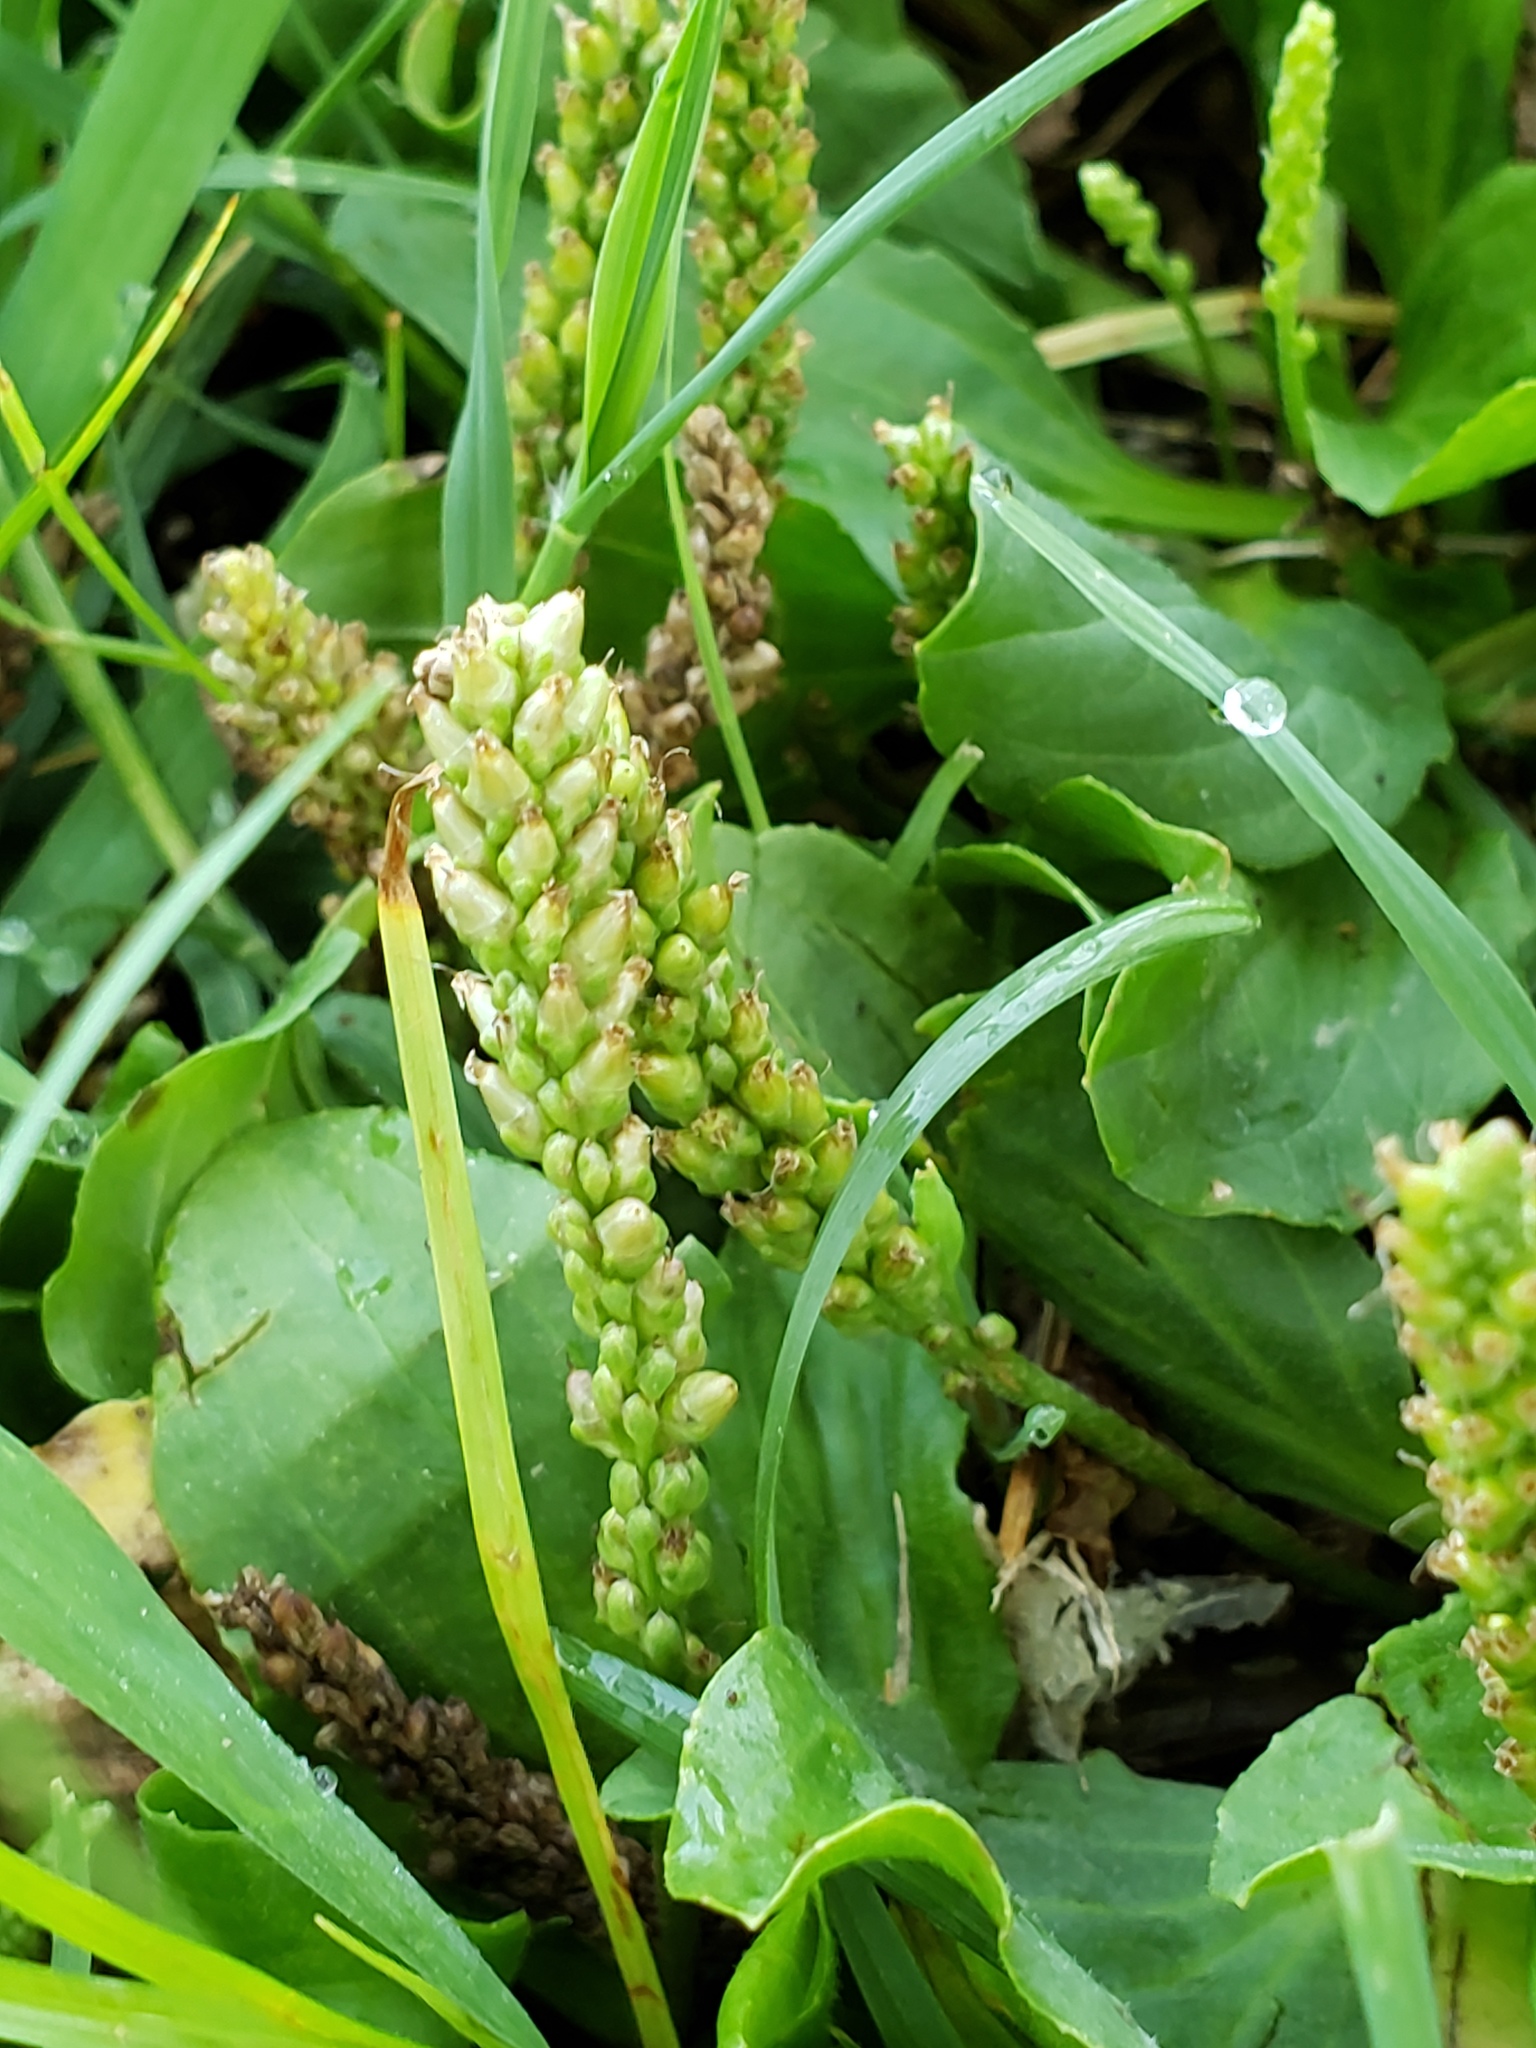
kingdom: Plantae
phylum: Tracheophyta
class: Magnoliopsida
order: Lamiales
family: Plantaginaceae
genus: Plantago
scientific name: Plantago major
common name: Common plantain
